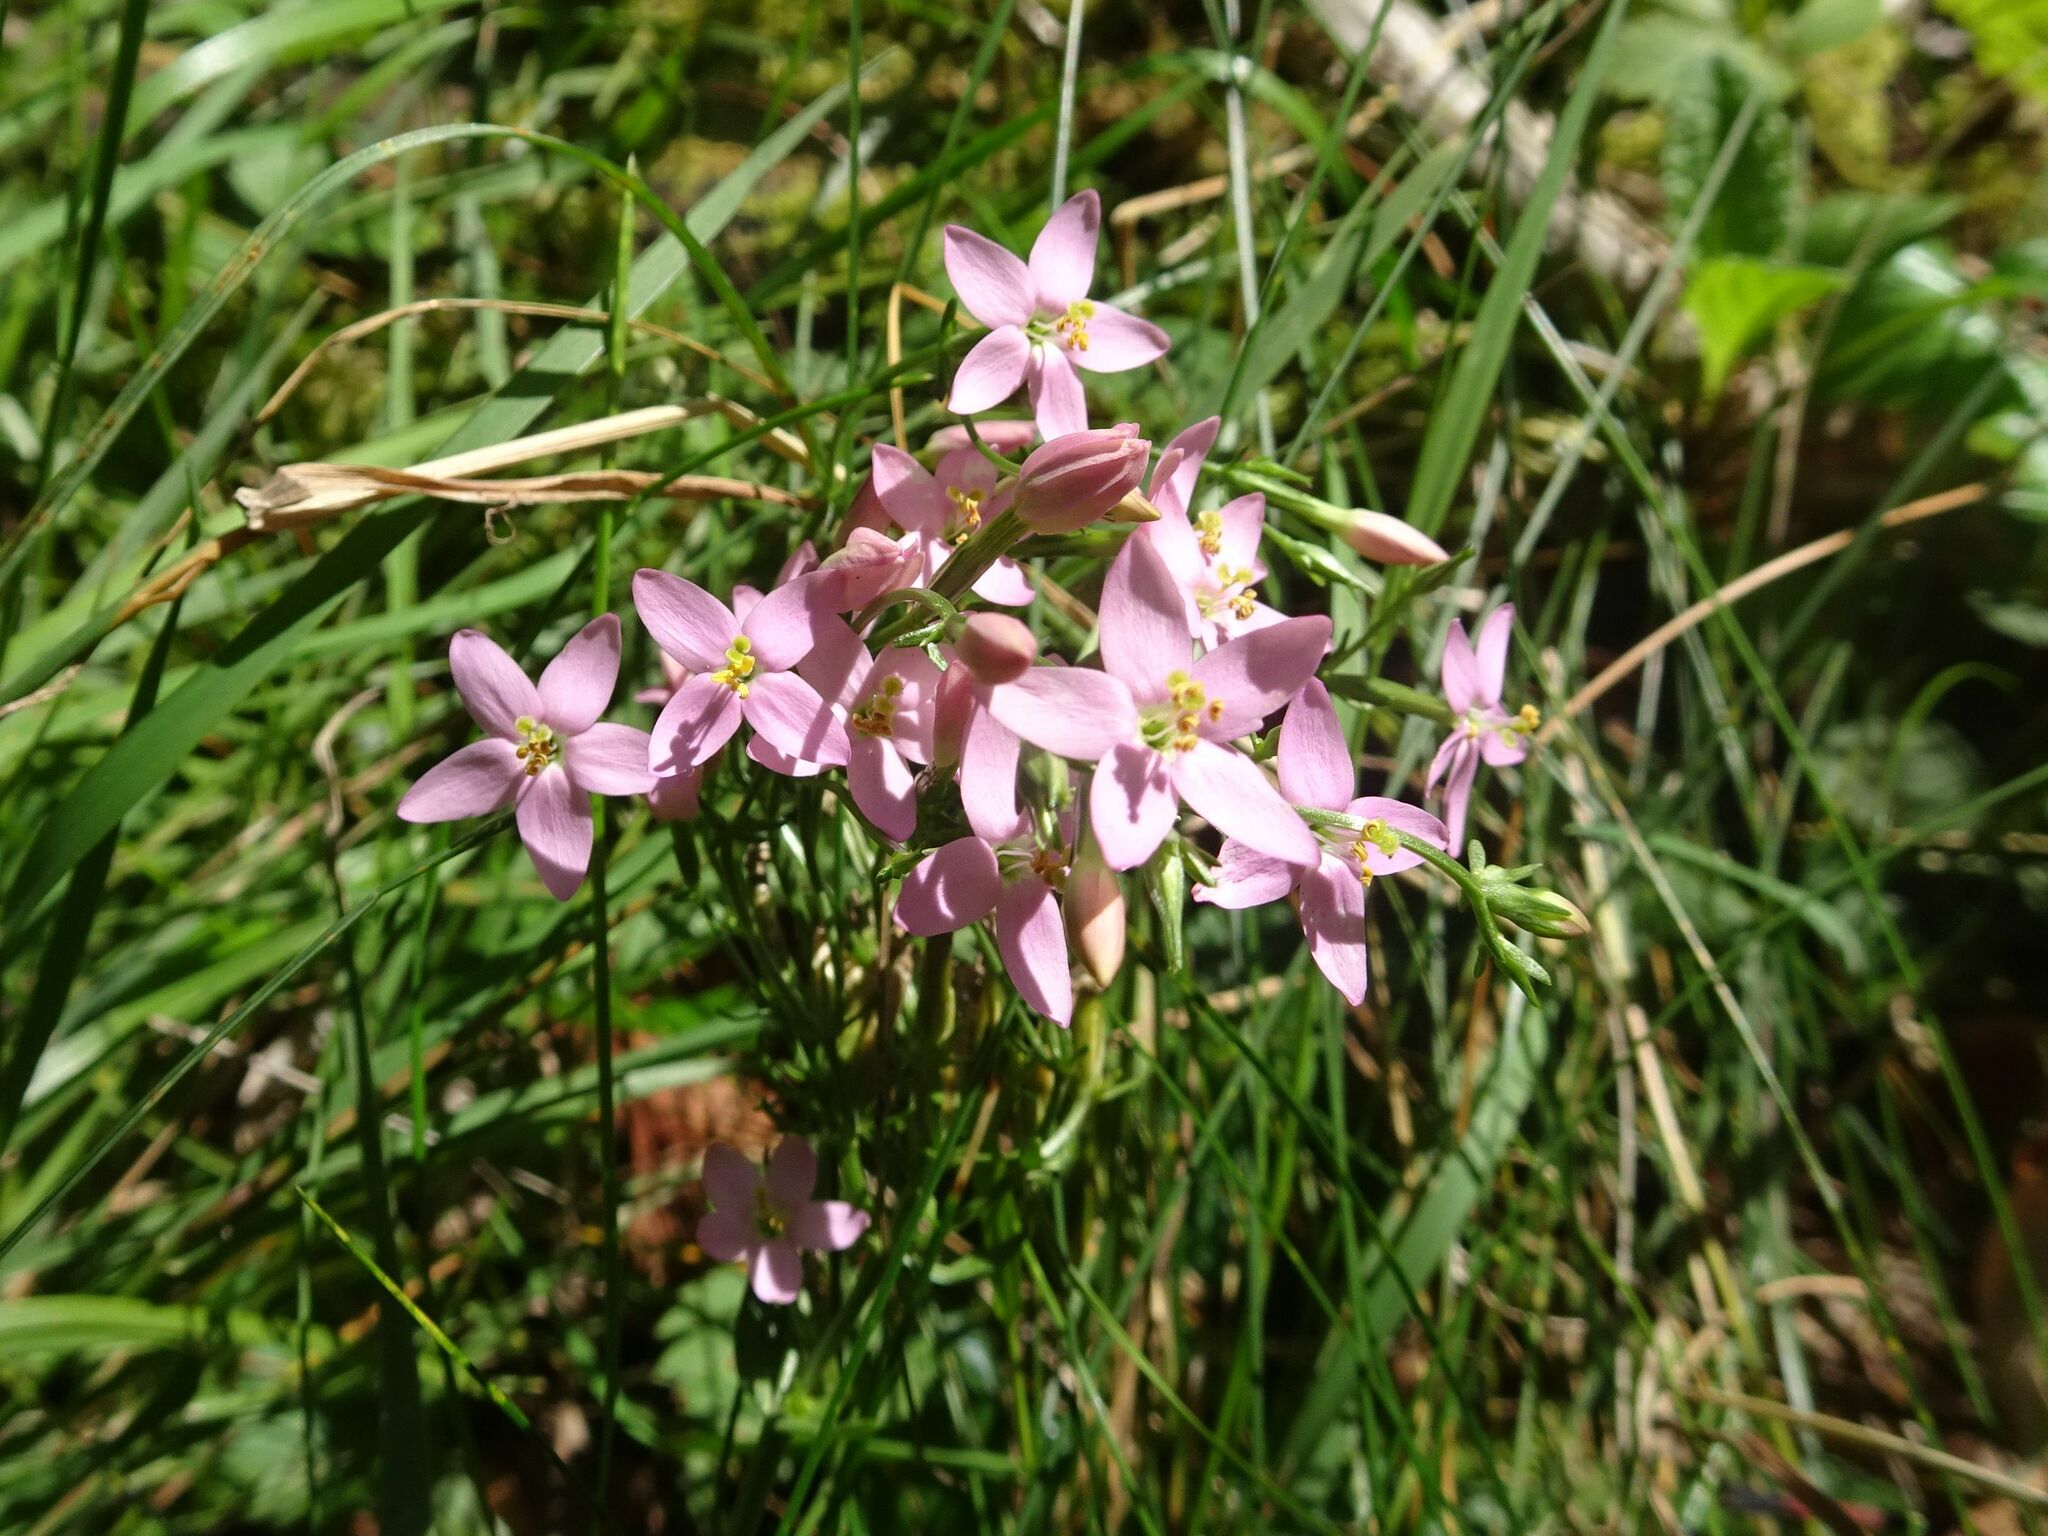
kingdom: Plantae
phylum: Tracheophyta
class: Magnoliopsida
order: Gentianales
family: Gentianaceae
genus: Centaurium
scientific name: Centaurium erythraea
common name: Common centaury
